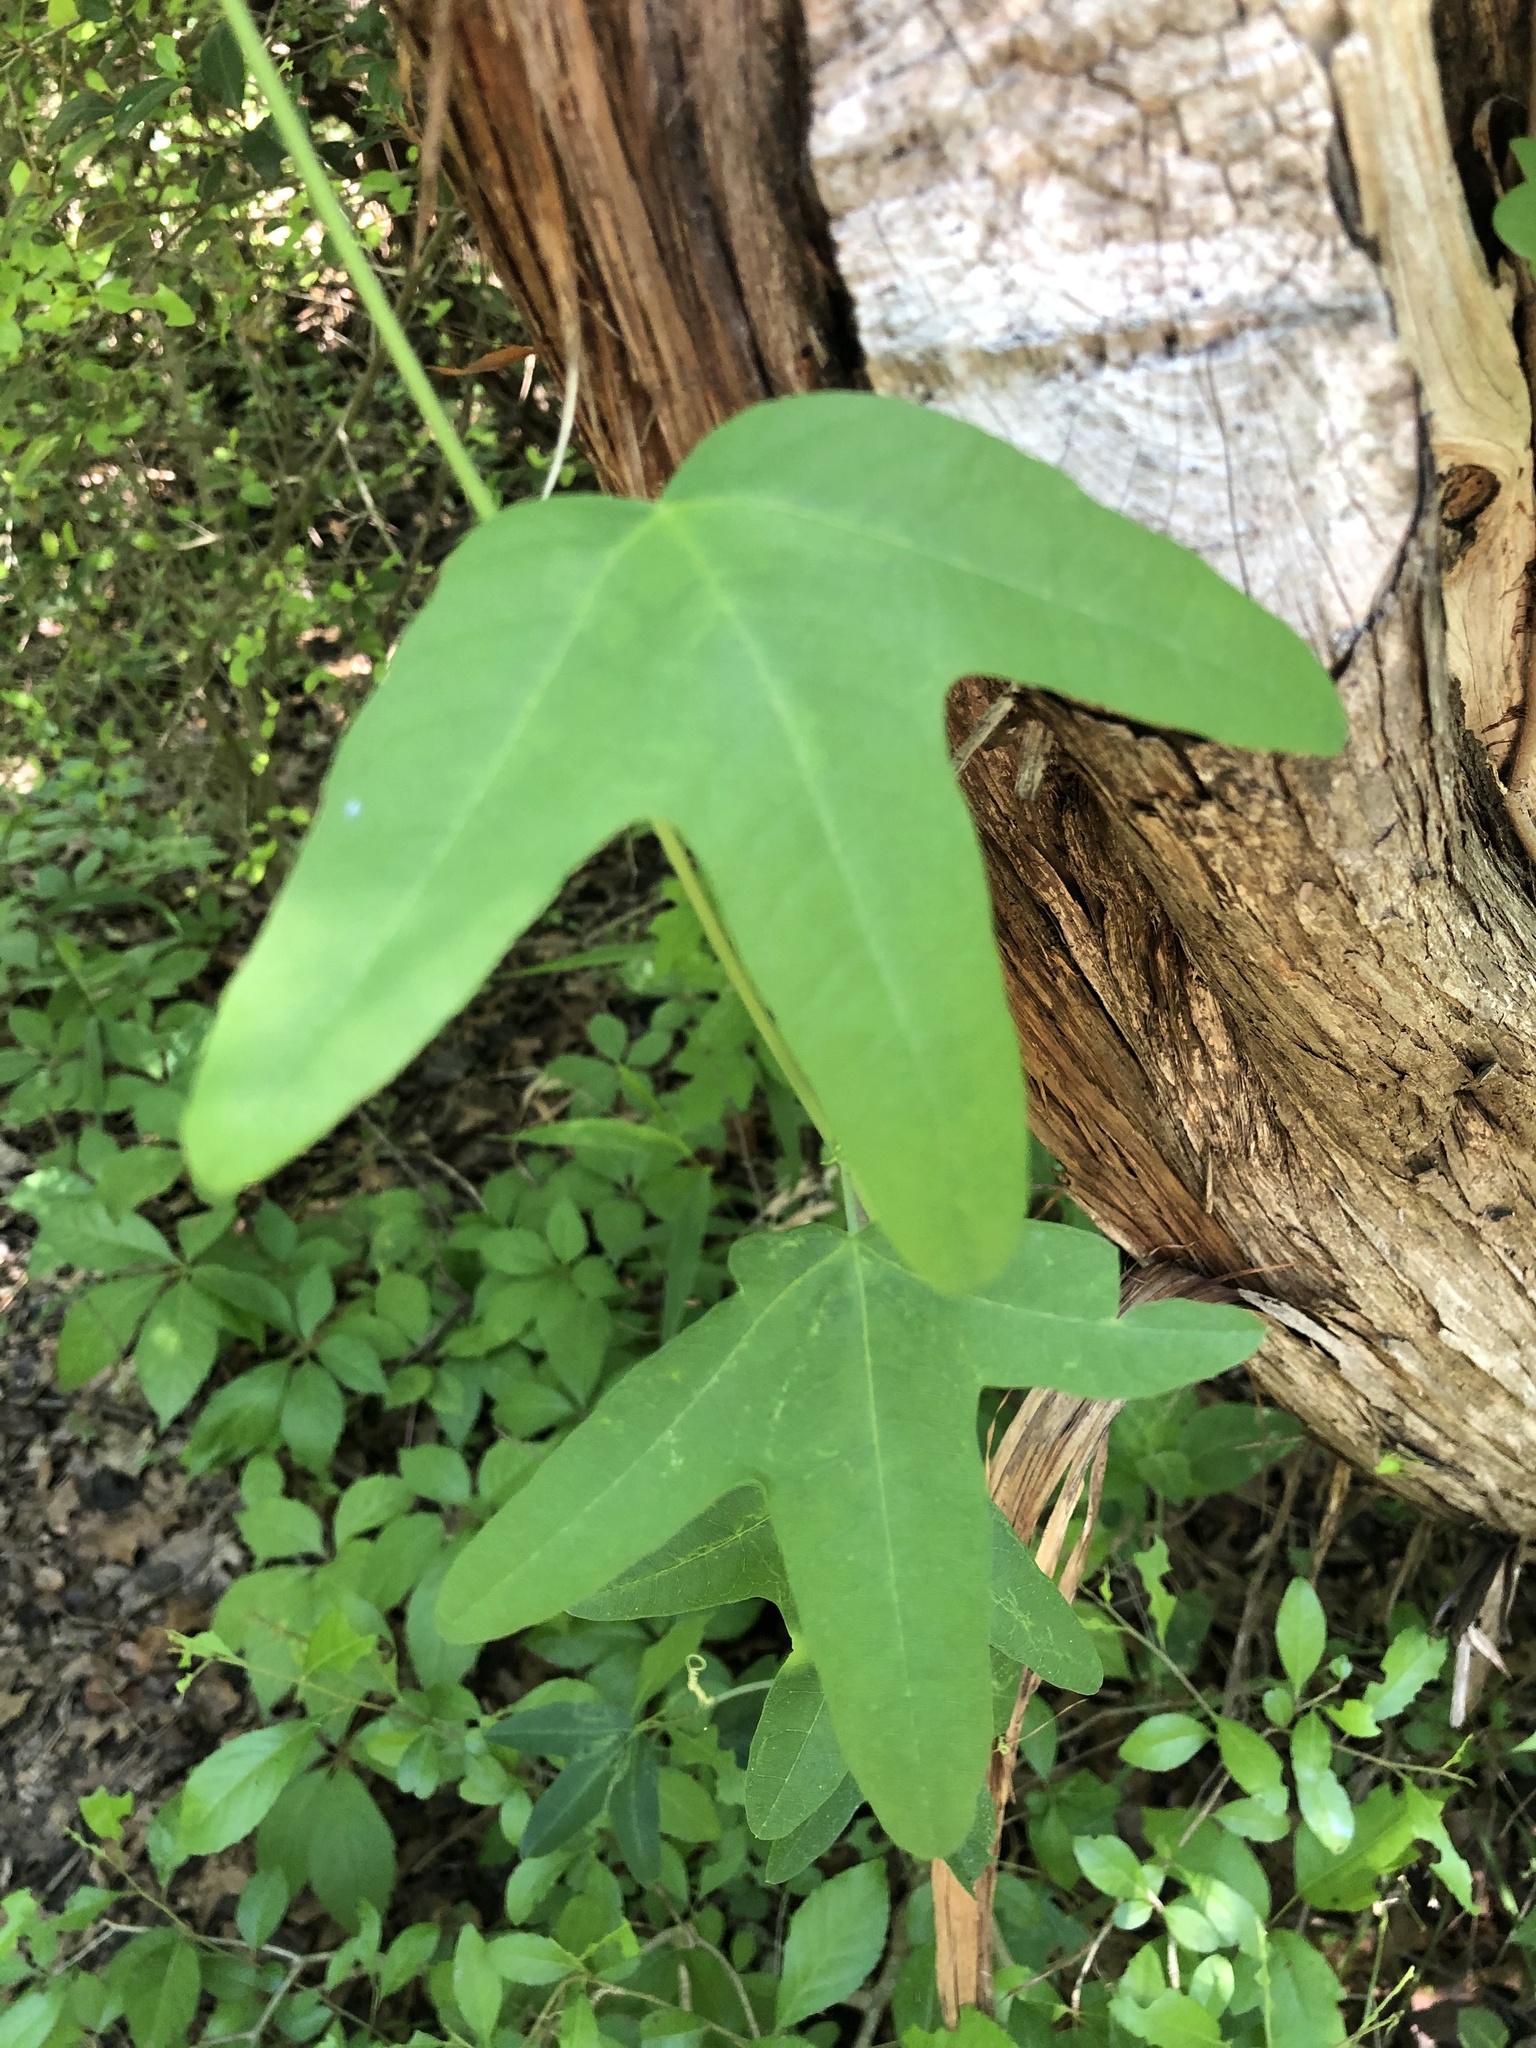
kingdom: Plantae
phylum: Tracheophyta
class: Magnoliopsida
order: Malpighiales
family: Passifloraceae
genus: Passiflora
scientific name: Passiflora affinis
